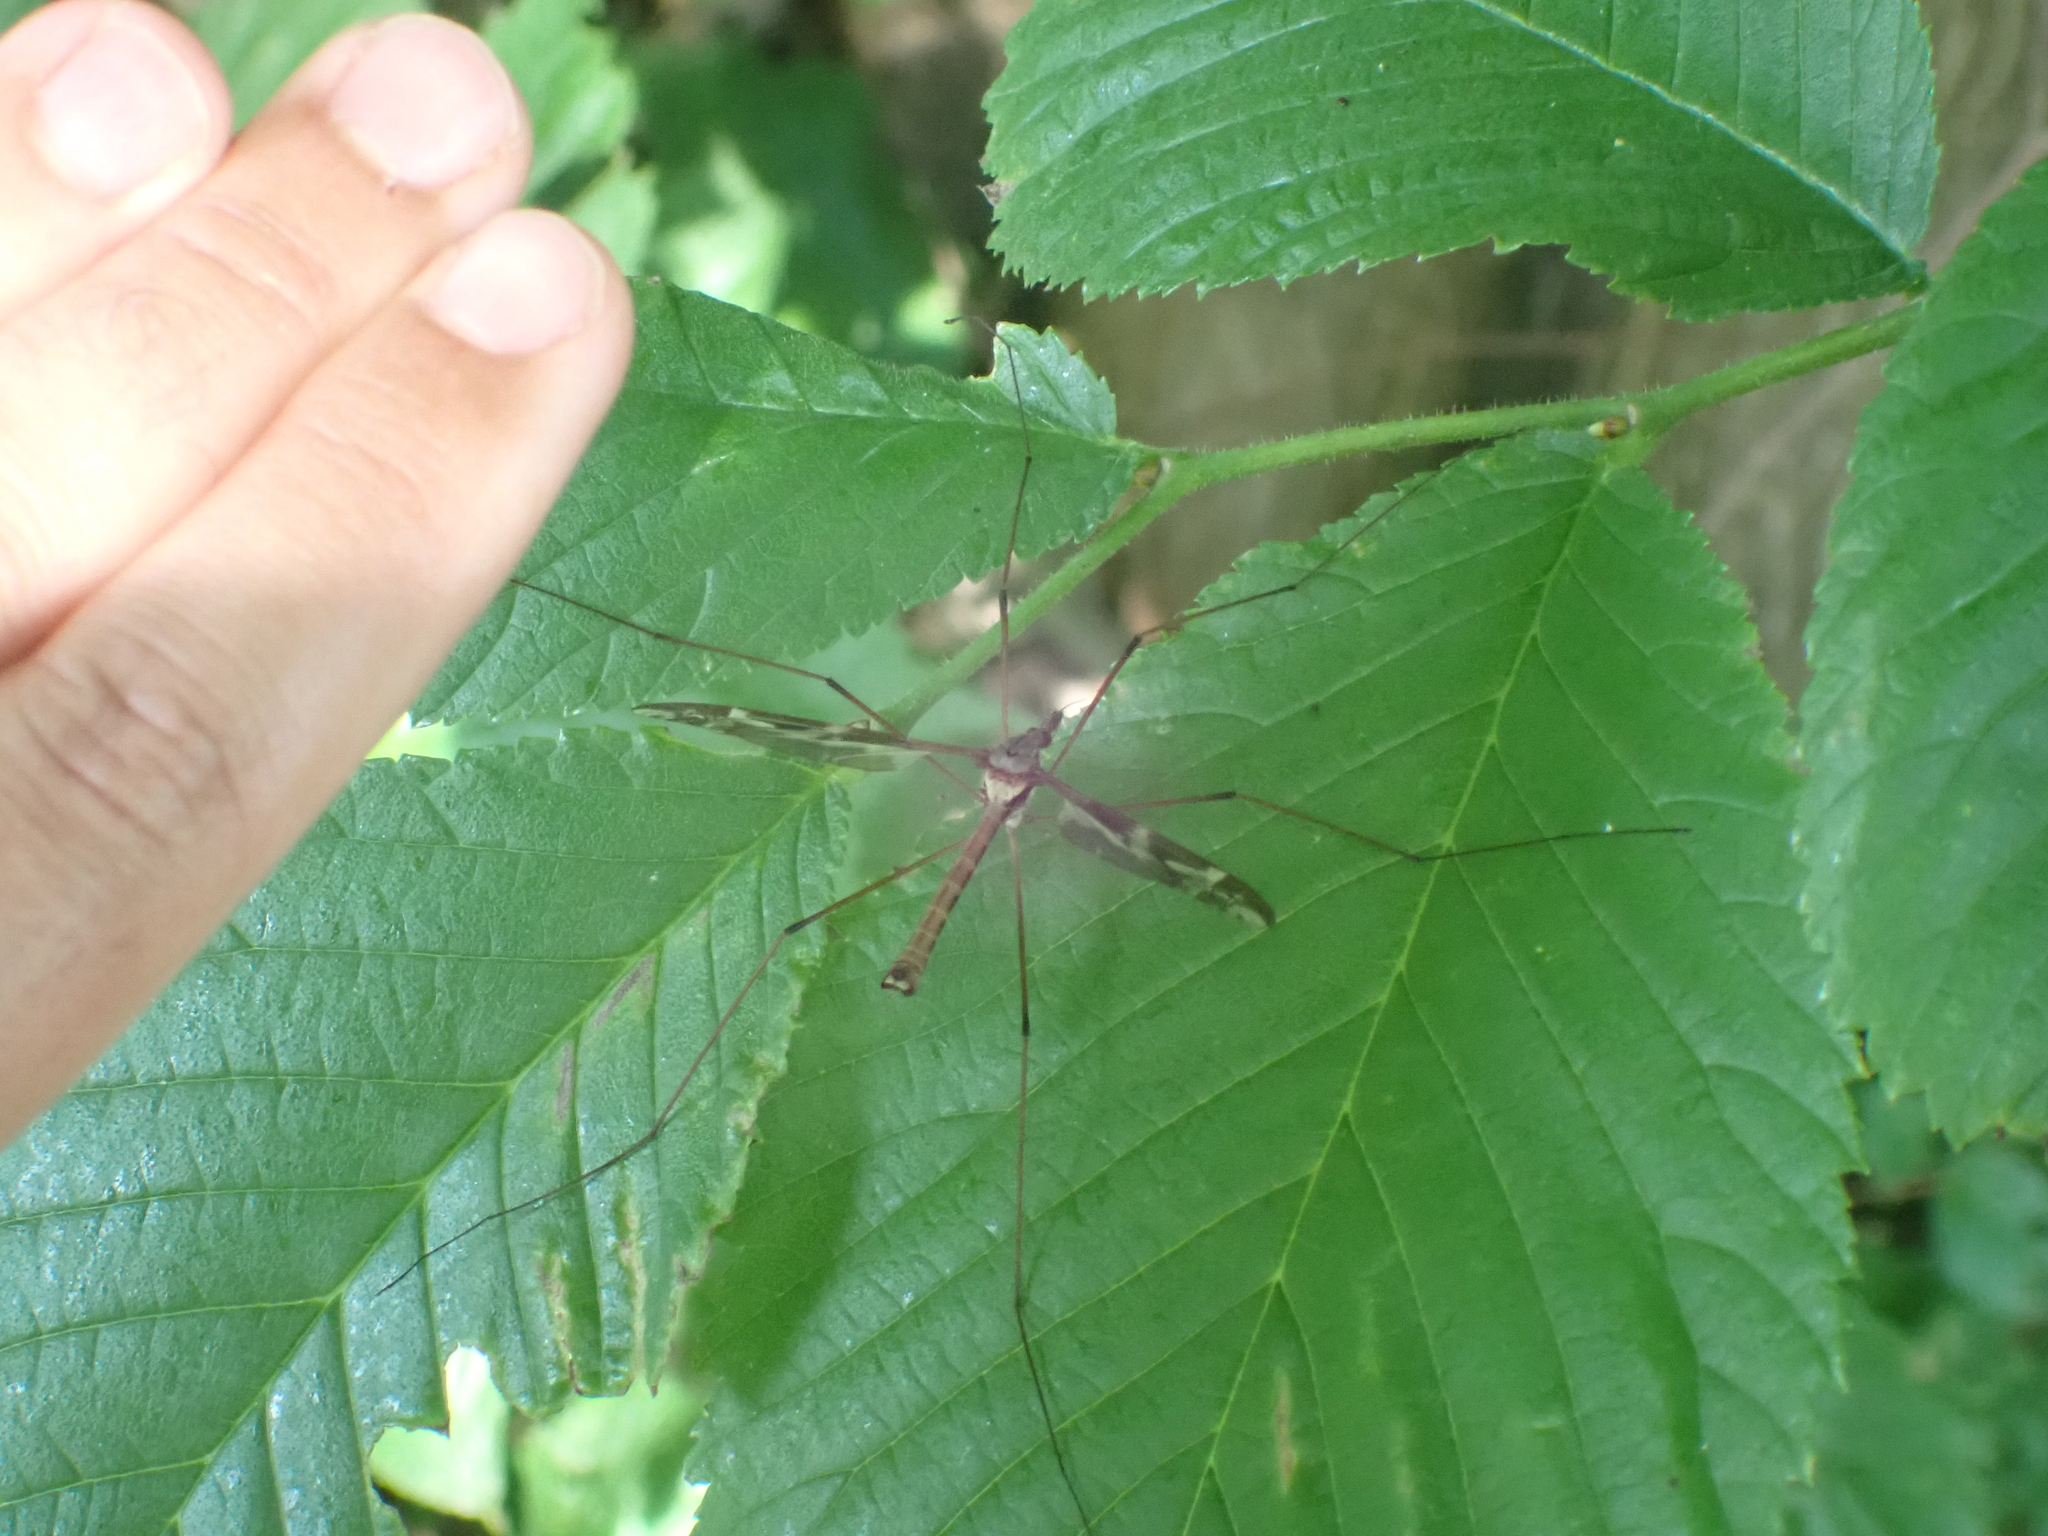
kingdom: Animalia
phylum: Arthropoda
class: Insecta
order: Diptera
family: Tipulidae
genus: Tipula
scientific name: Tipula maxima
